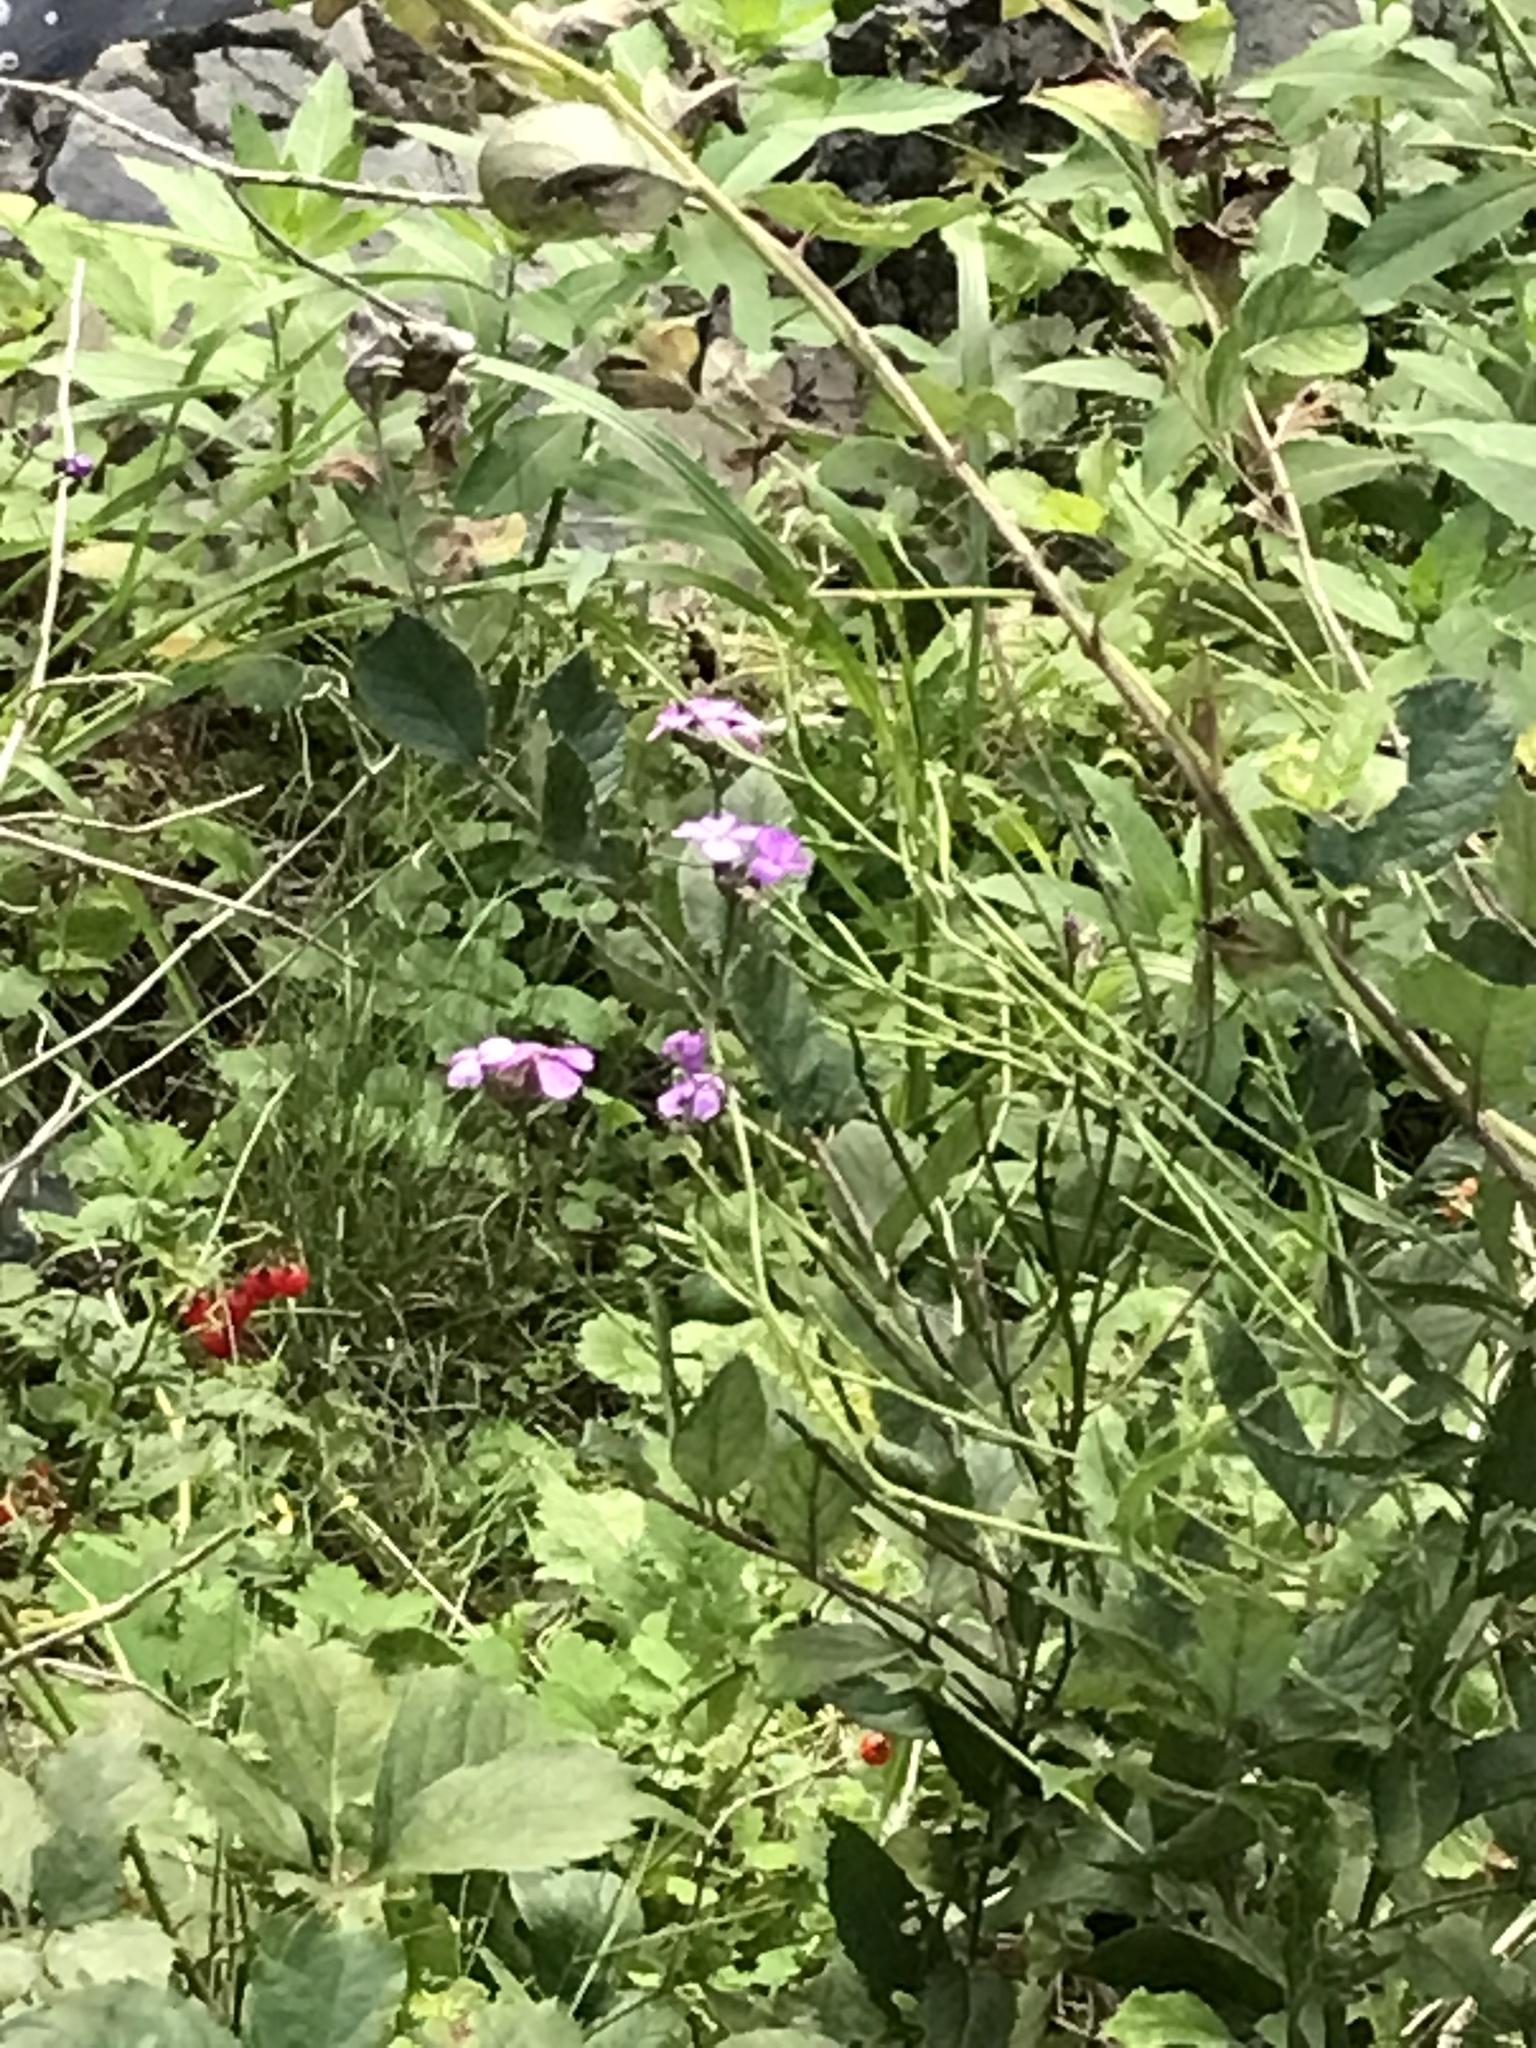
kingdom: Plantae
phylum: Tracheophyta
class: Magnoliopsida
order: Brassicales
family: Brassicaceae
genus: Hesperis
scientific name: Hesperis matronalis
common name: Dame's-violet
